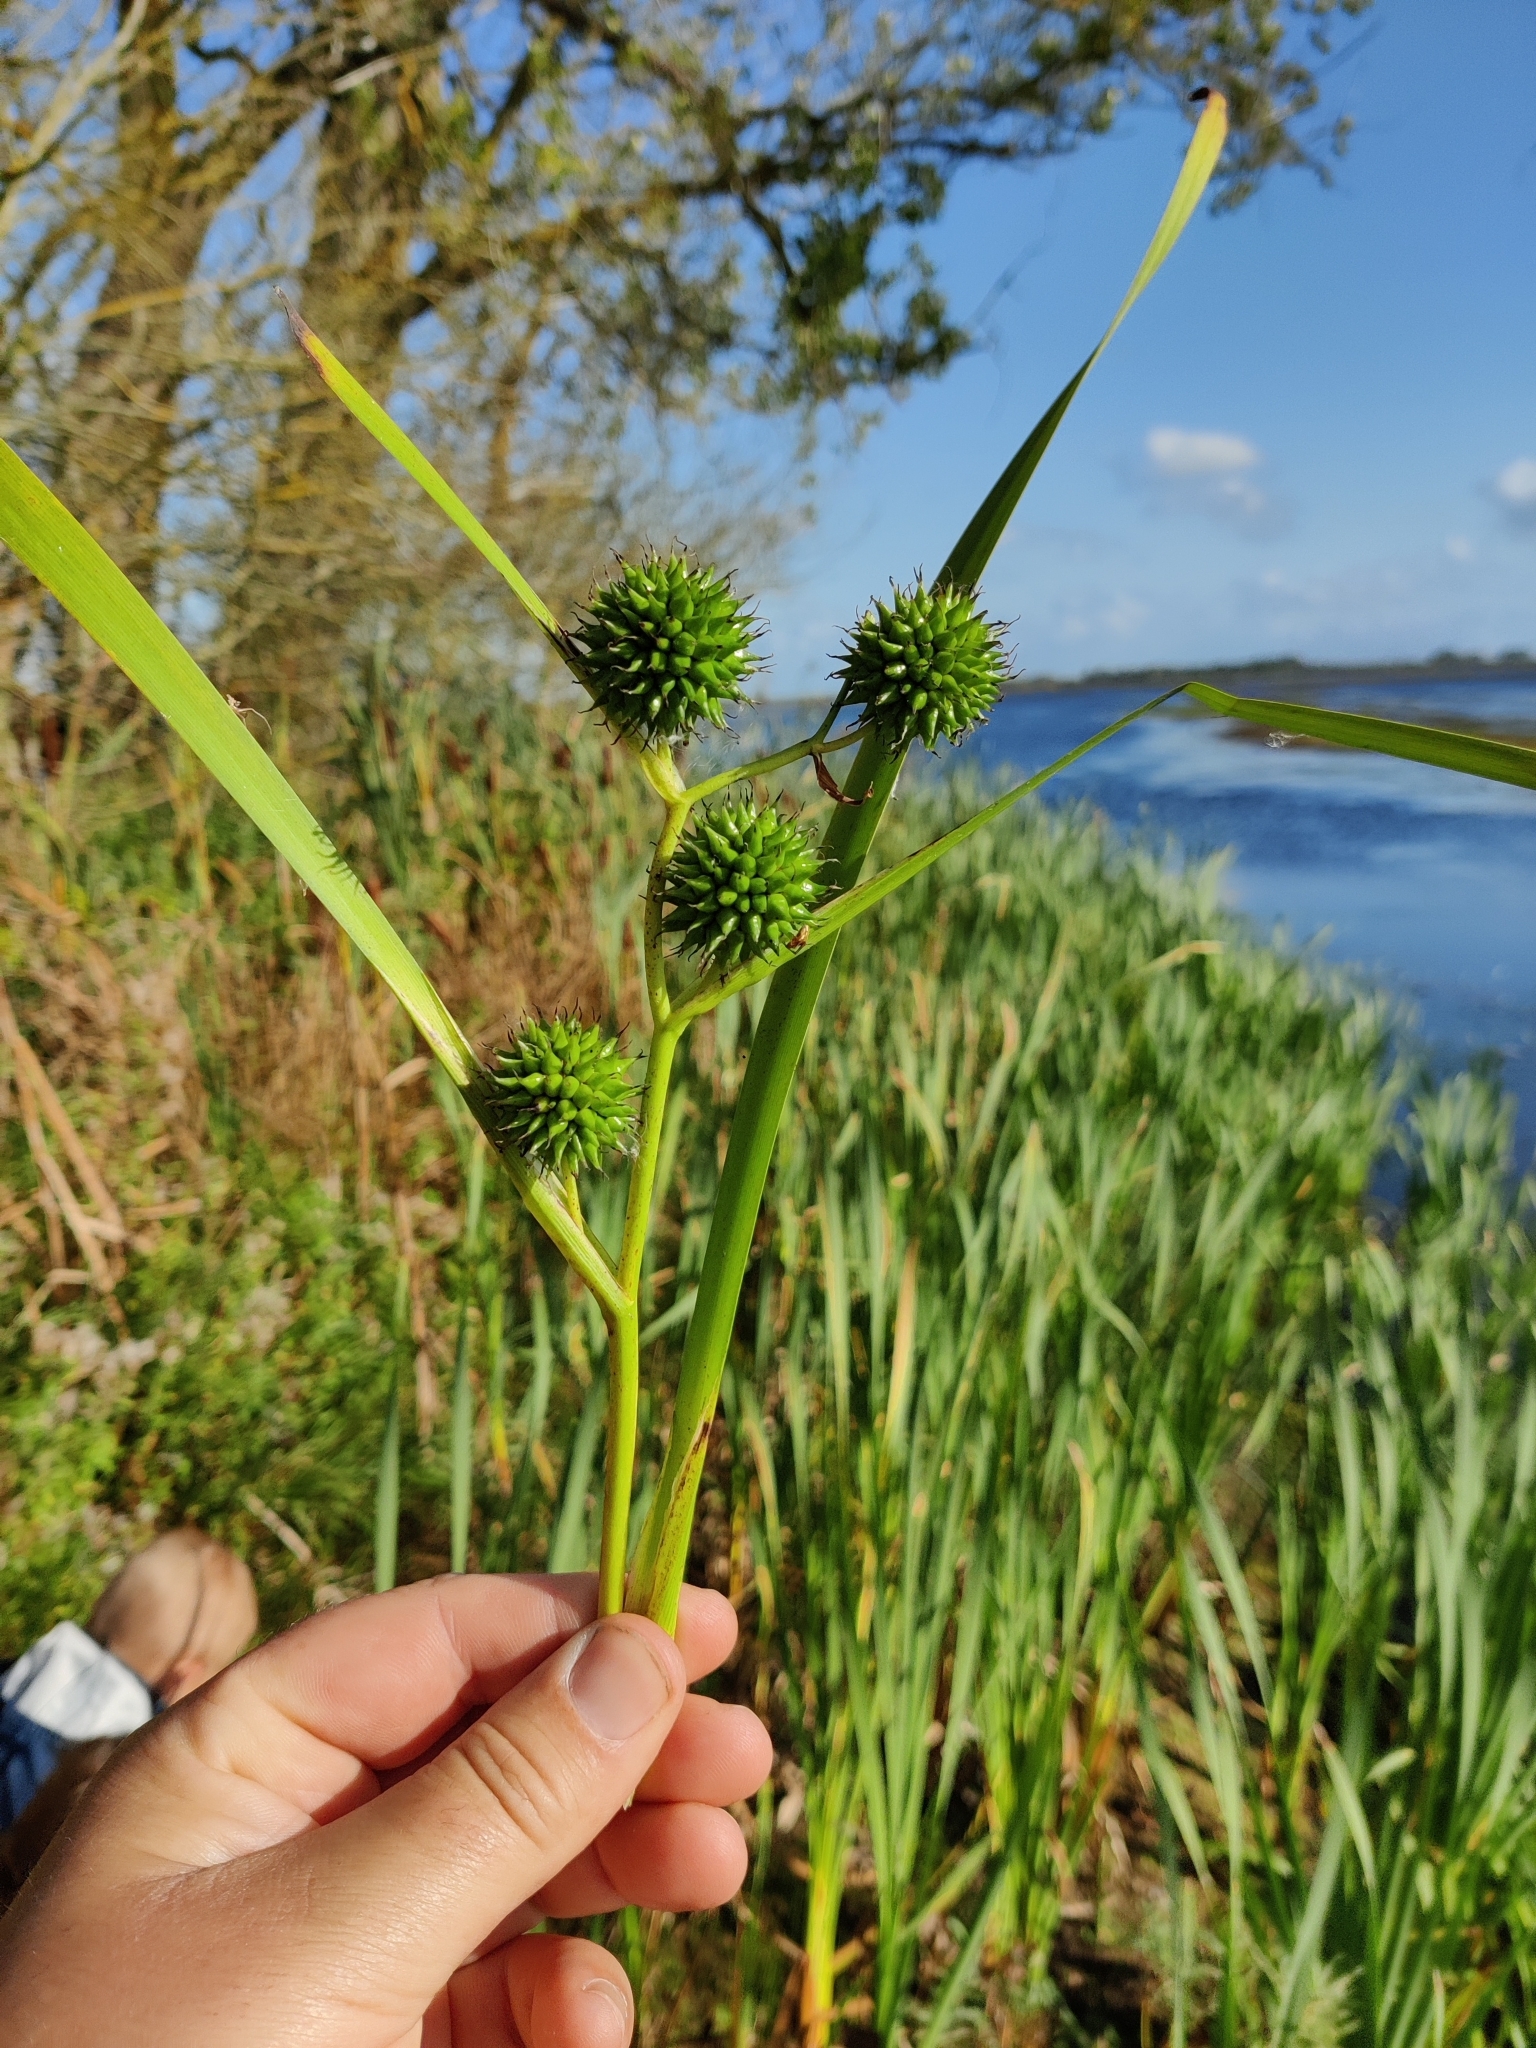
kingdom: Plantae
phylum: Tracheophyta
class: Liliopsida
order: Poales
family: Typhaceae
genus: Sparganium
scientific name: Sparganium erectum
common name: Branched bur-reed
